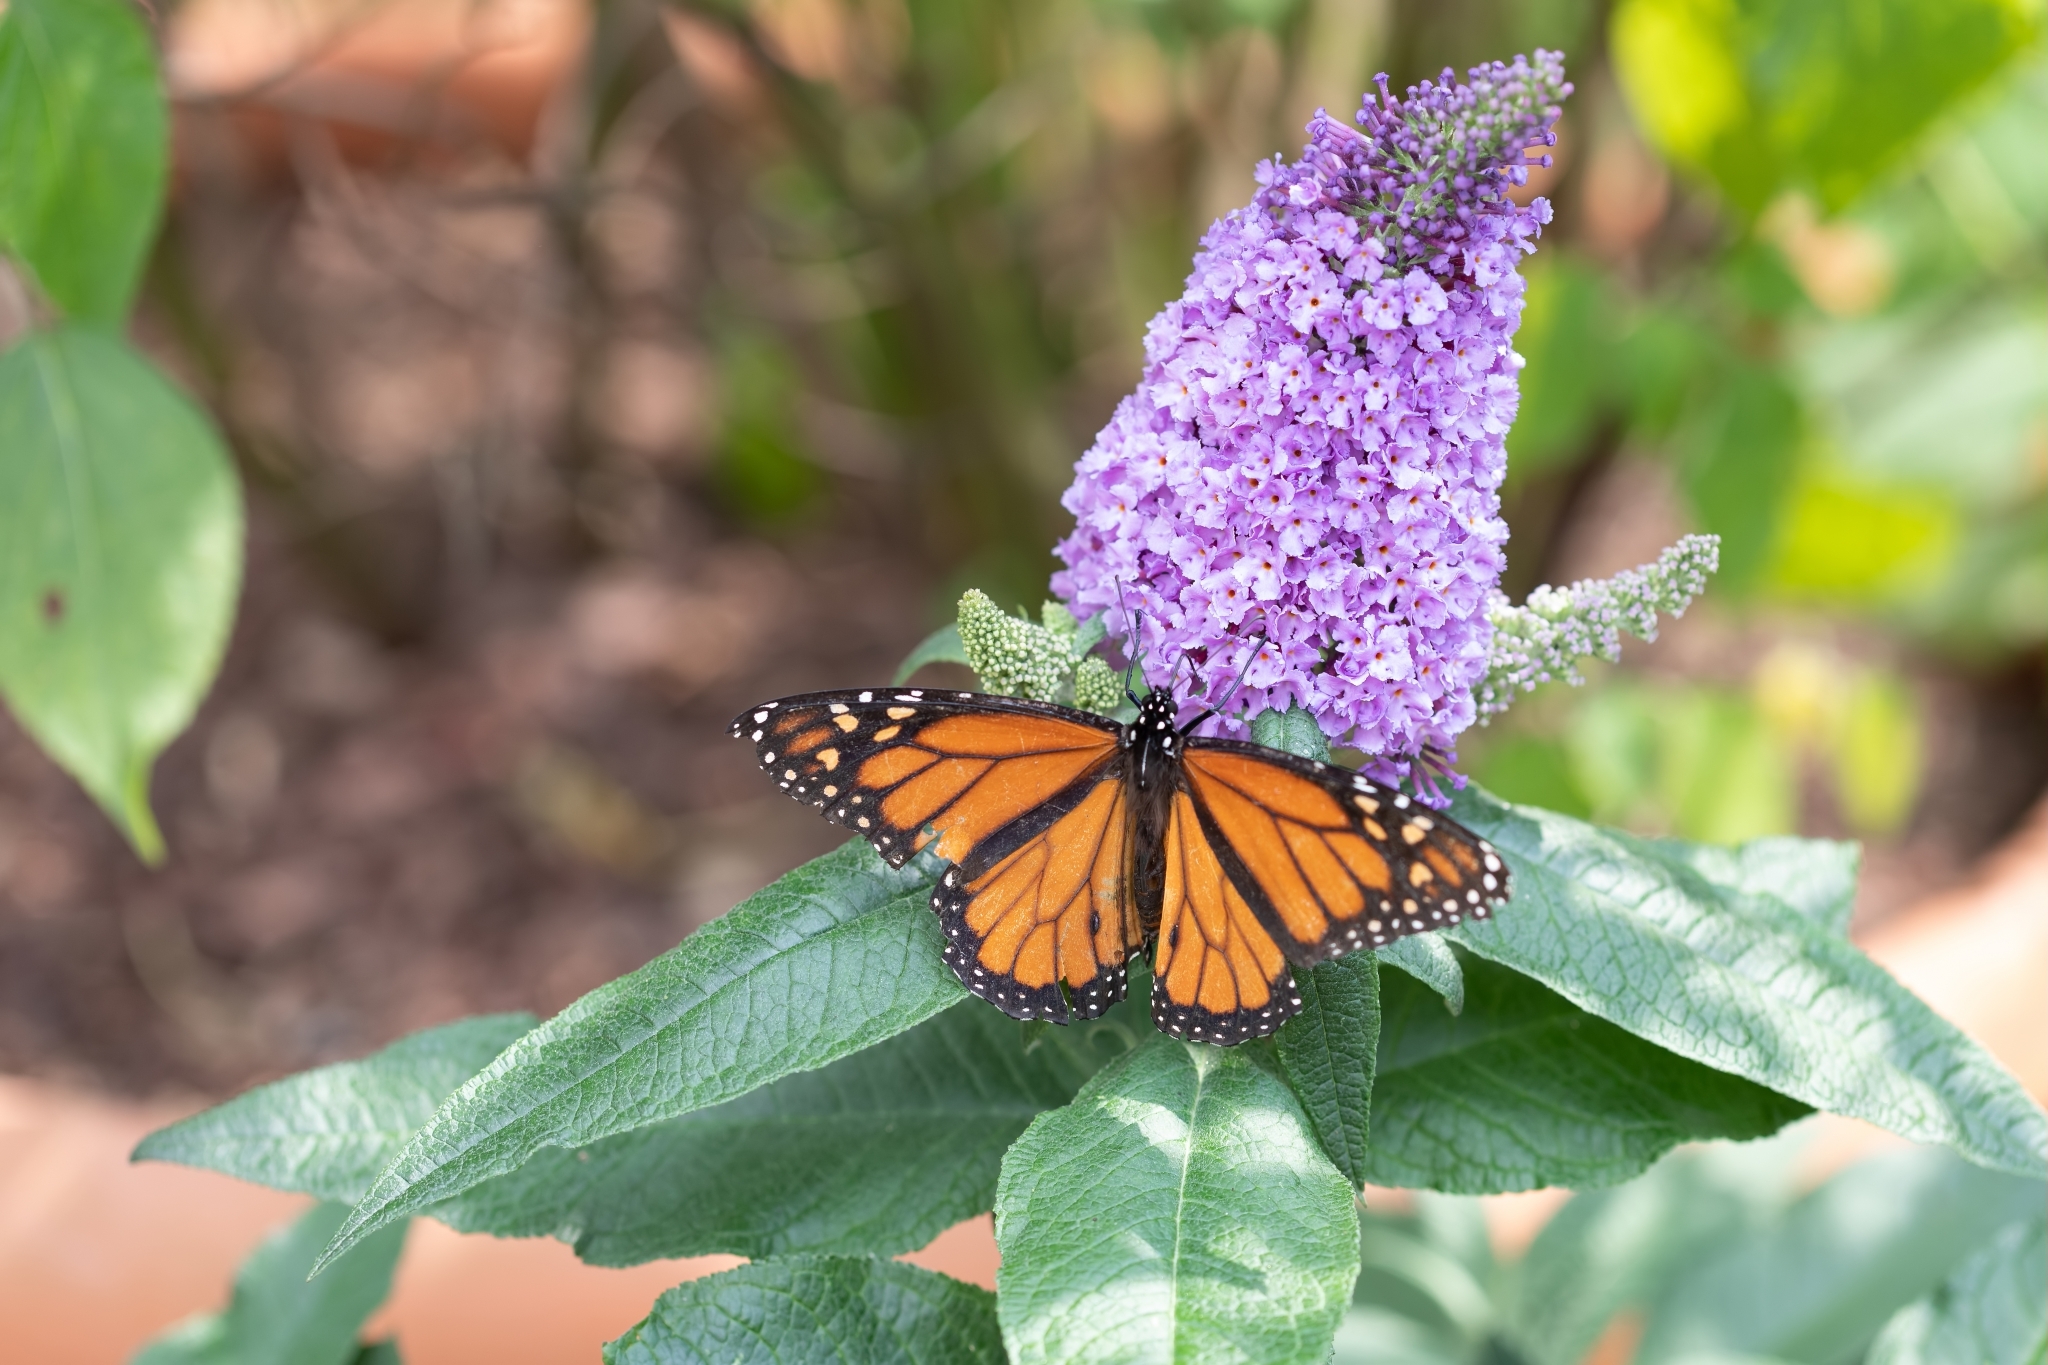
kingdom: Animalia
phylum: Arthropoda
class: Insecta
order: Lepidoptera
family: Nymphalidae
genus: Danaus
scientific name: Danaus plexippus
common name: Monarch
